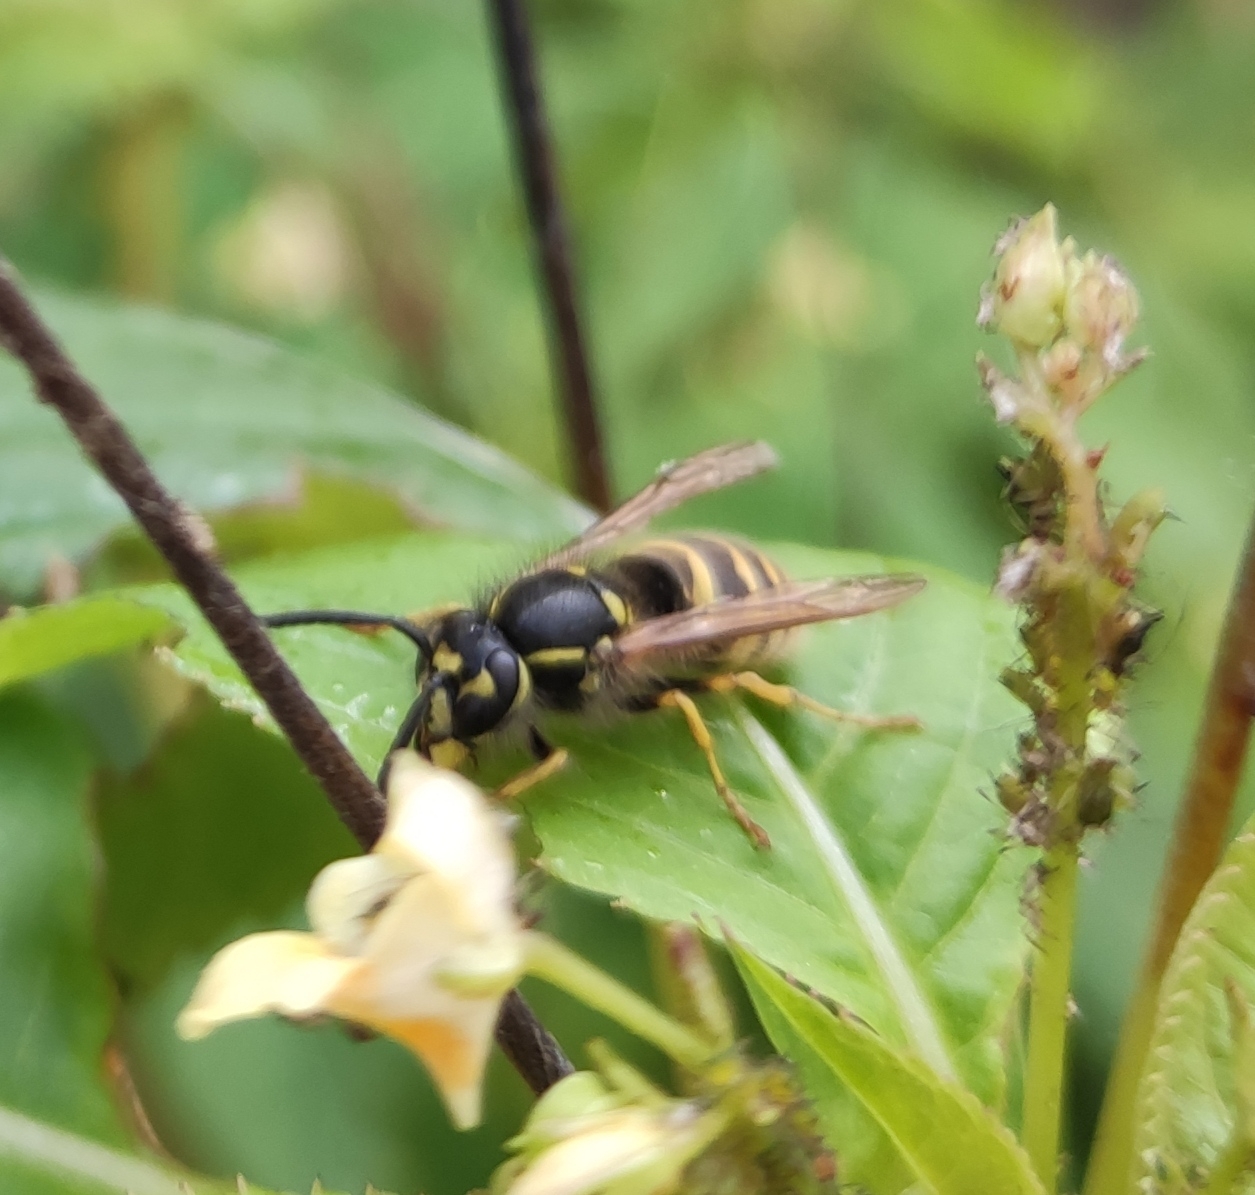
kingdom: Animalia
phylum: Arthropoda
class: Insecta
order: Hymenoptera
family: Vespidae
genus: Vespula
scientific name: Vespula vulgaris
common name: Common wasp
